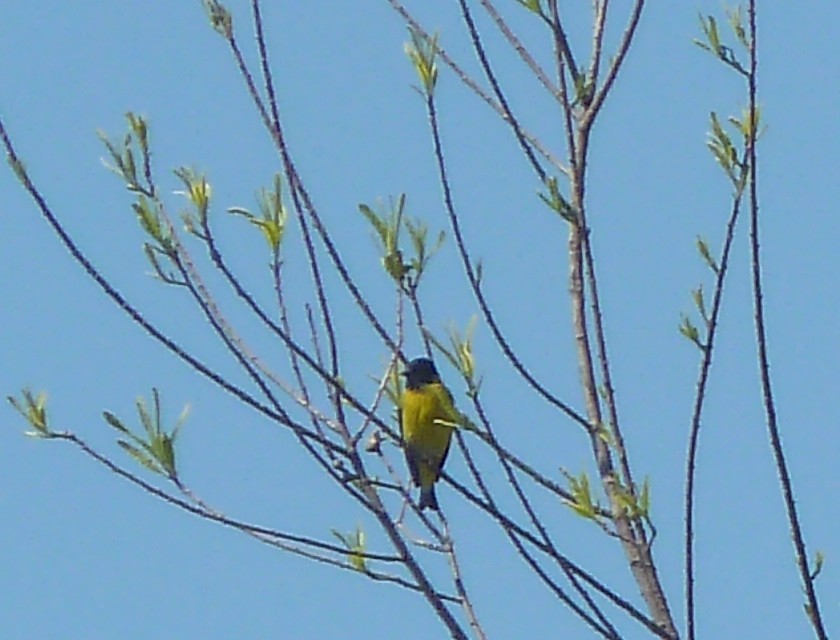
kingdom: Animalia
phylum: Chordata
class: Aves
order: Passeriformes
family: Fringillidae
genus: Spinus
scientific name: Spinus magellanicus
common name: Hooded siskin
